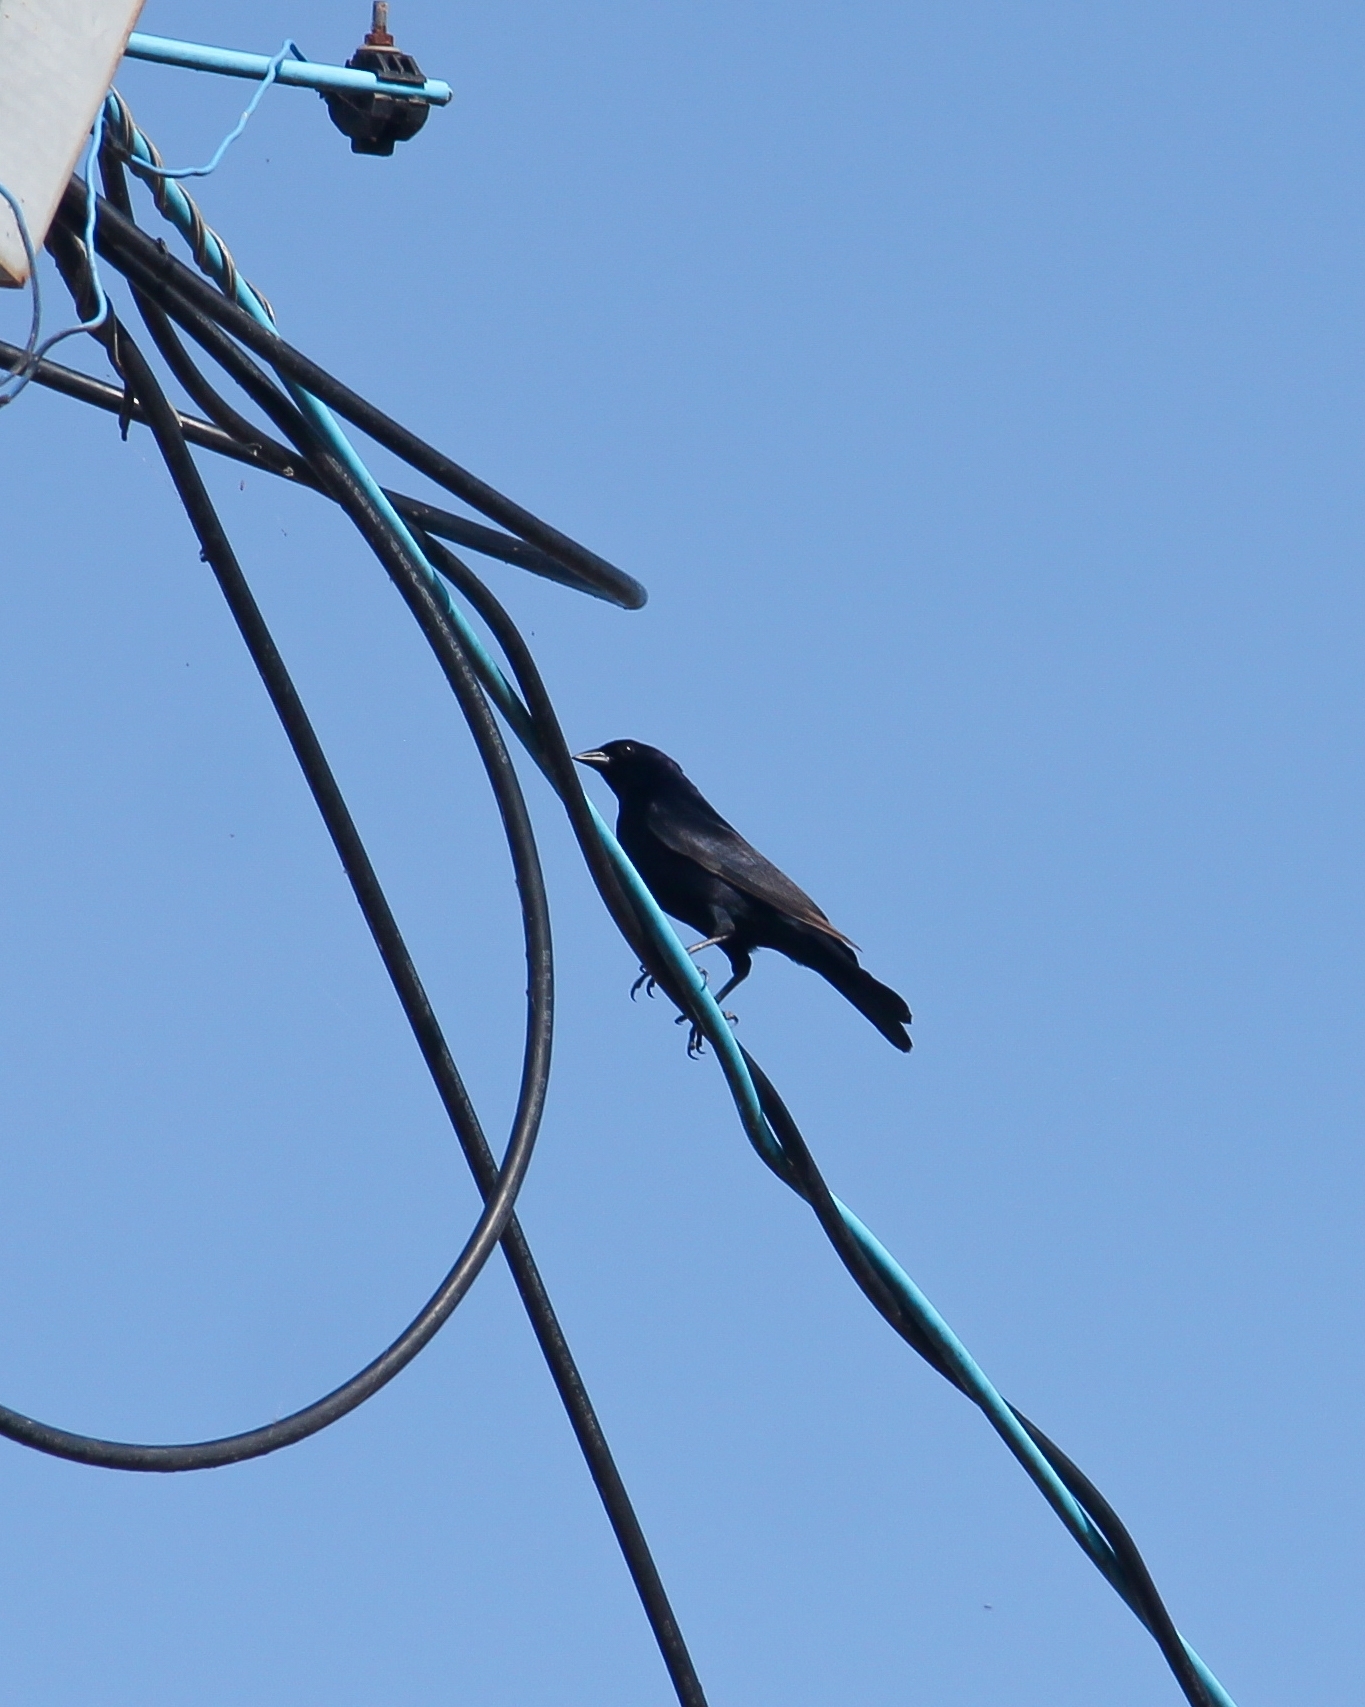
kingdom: Animalia
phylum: Chordata
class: Aves
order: Passeriformes
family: Icteridae
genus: Molothrus
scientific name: Molothrus bonariensis
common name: Shiny cowbird
